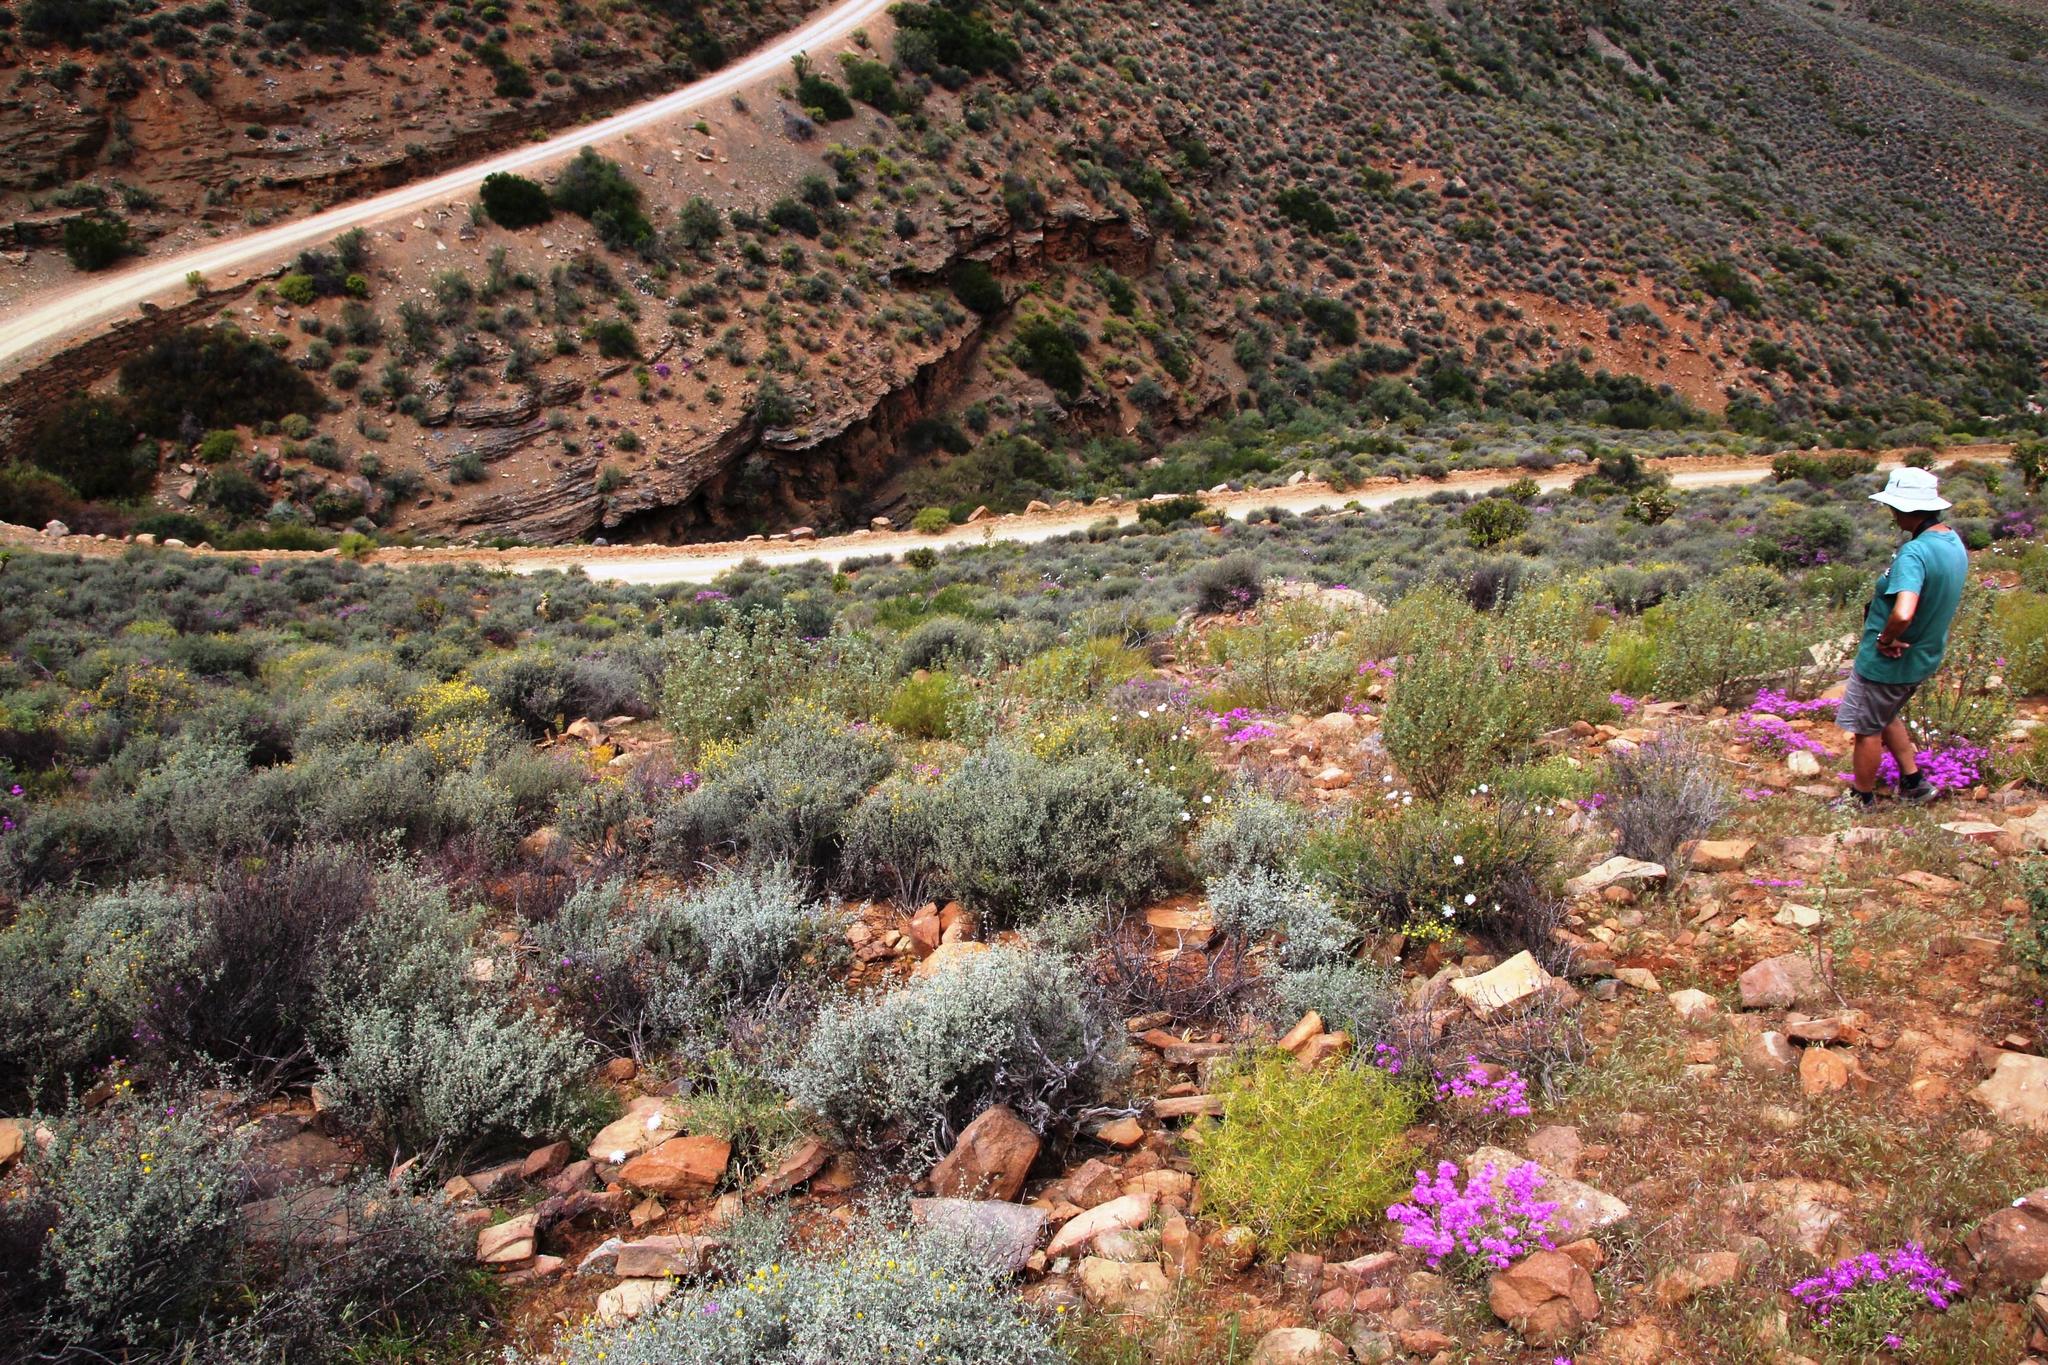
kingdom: Plantae
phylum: Tracheophyta
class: Magnoliopsida
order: Asterales
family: Asteraceae
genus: Pteronia
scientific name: Pteronia incana
